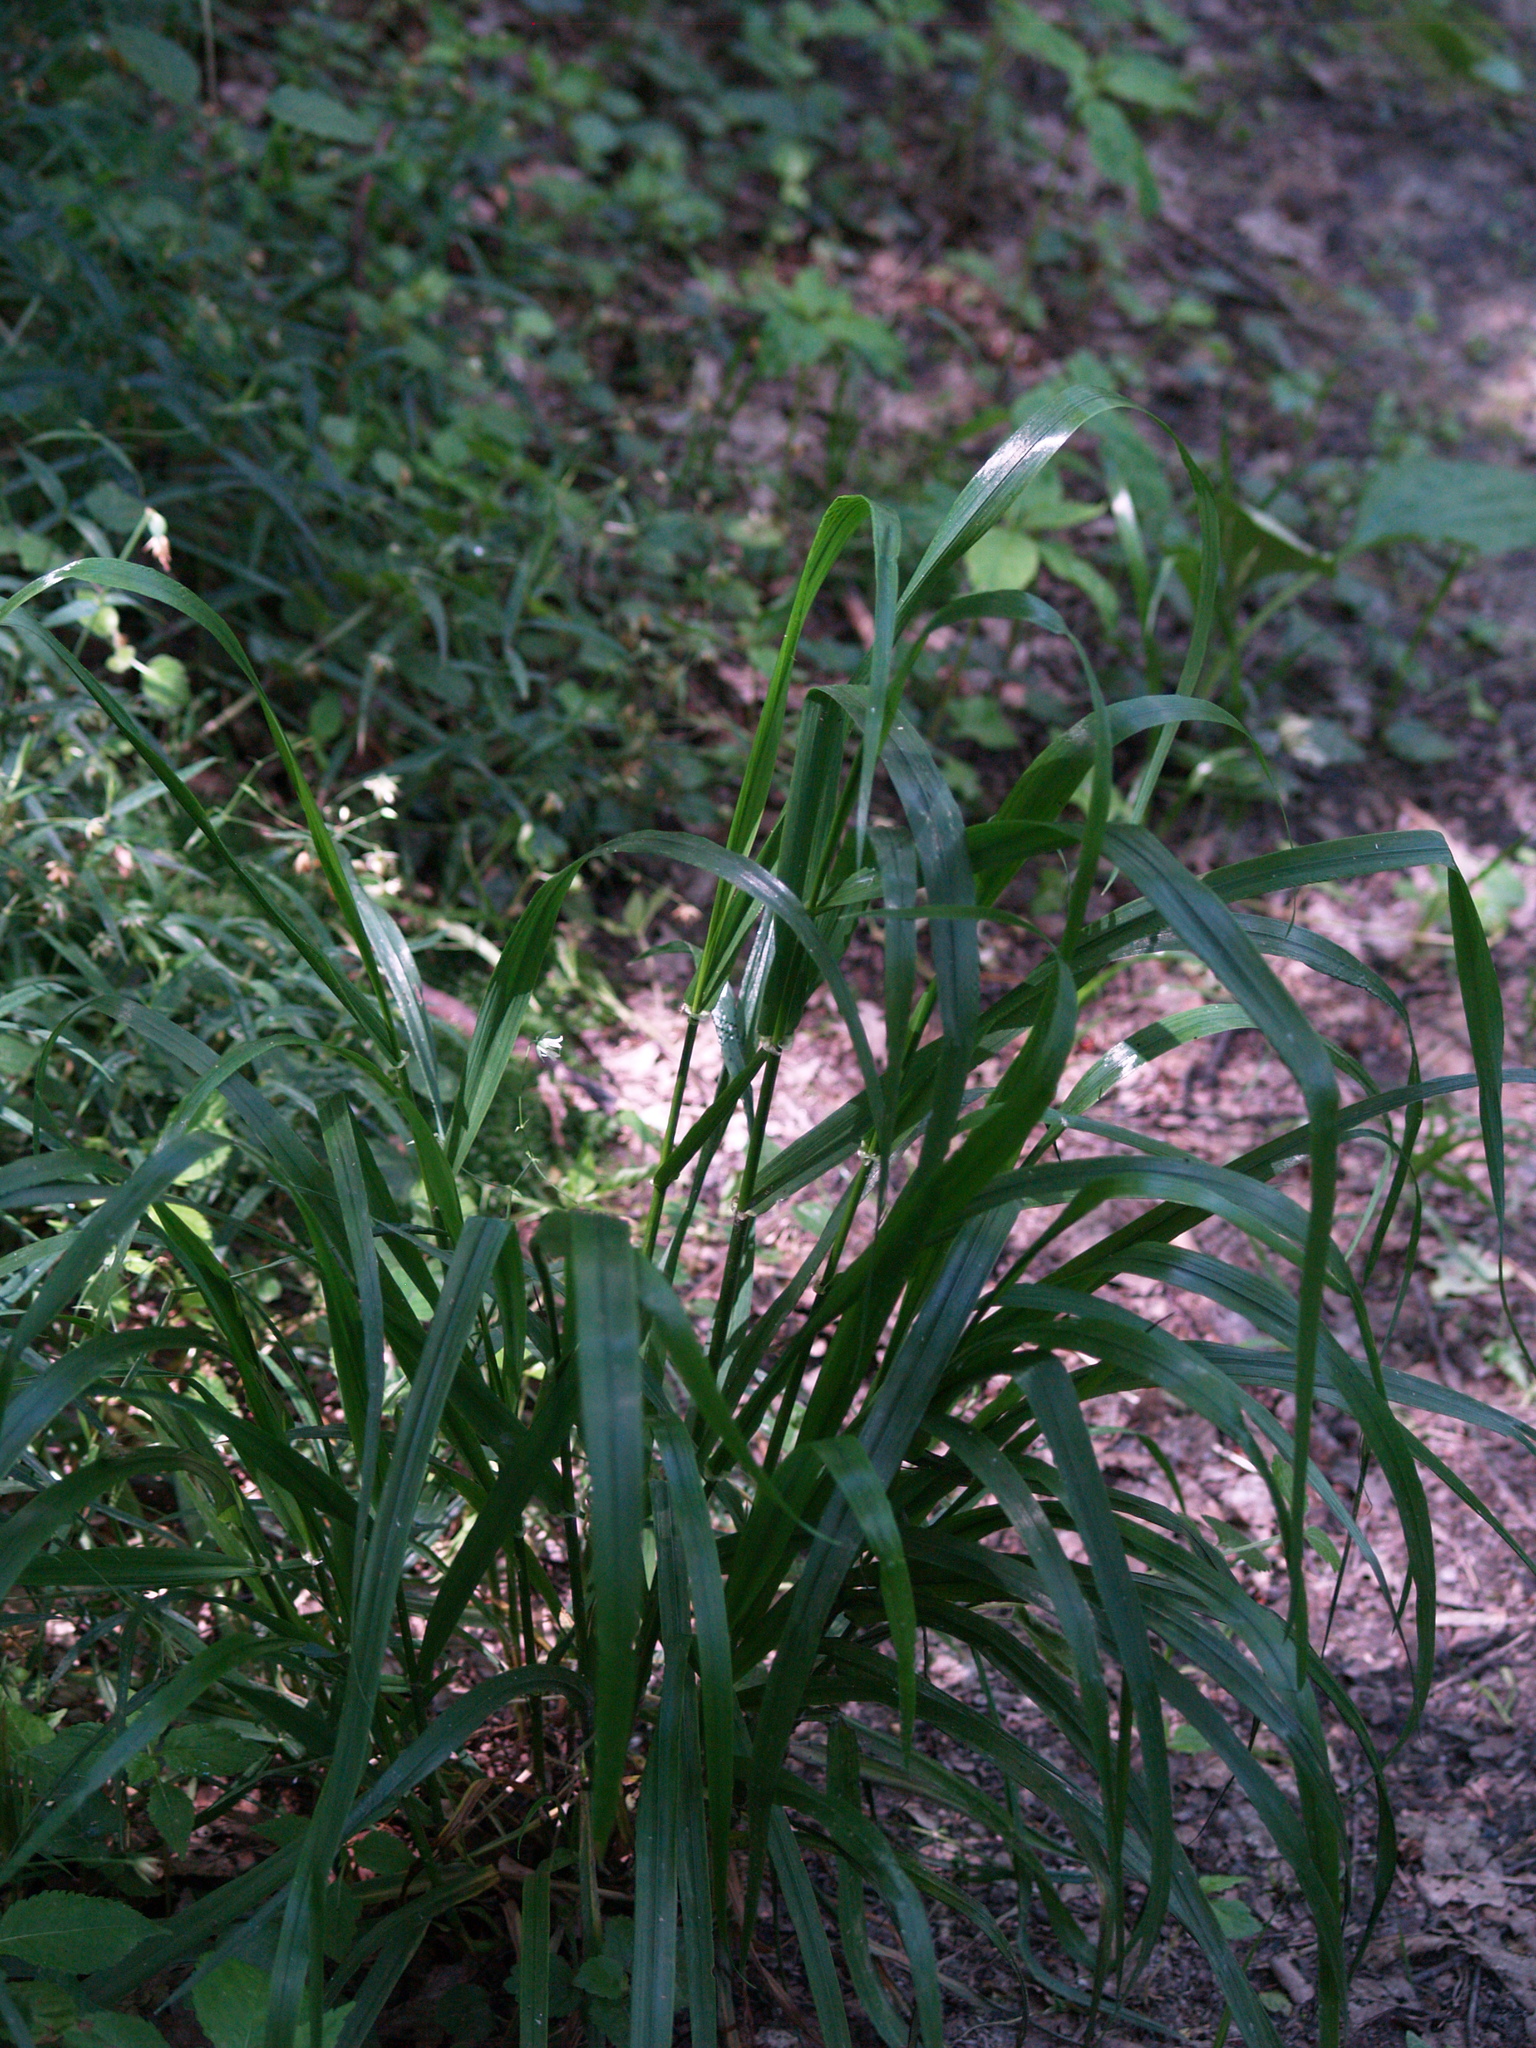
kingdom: Plantae
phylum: Tracheophyta
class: Liliopsida
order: Poales
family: Poaceae
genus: Lolium
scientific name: Lolium giganteum
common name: Giant fescue
